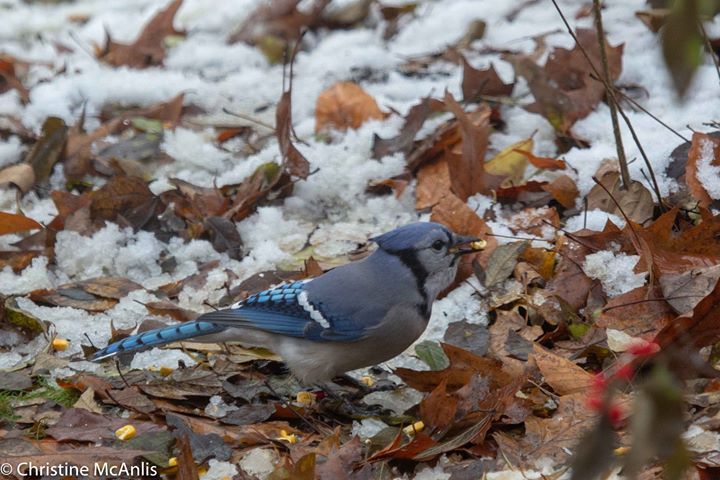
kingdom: Animalia
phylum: Chordata
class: Aves
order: Passeriformes
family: Corvidae
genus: Cyanocitta
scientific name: Cyanocitta cristata
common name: Blue jay
